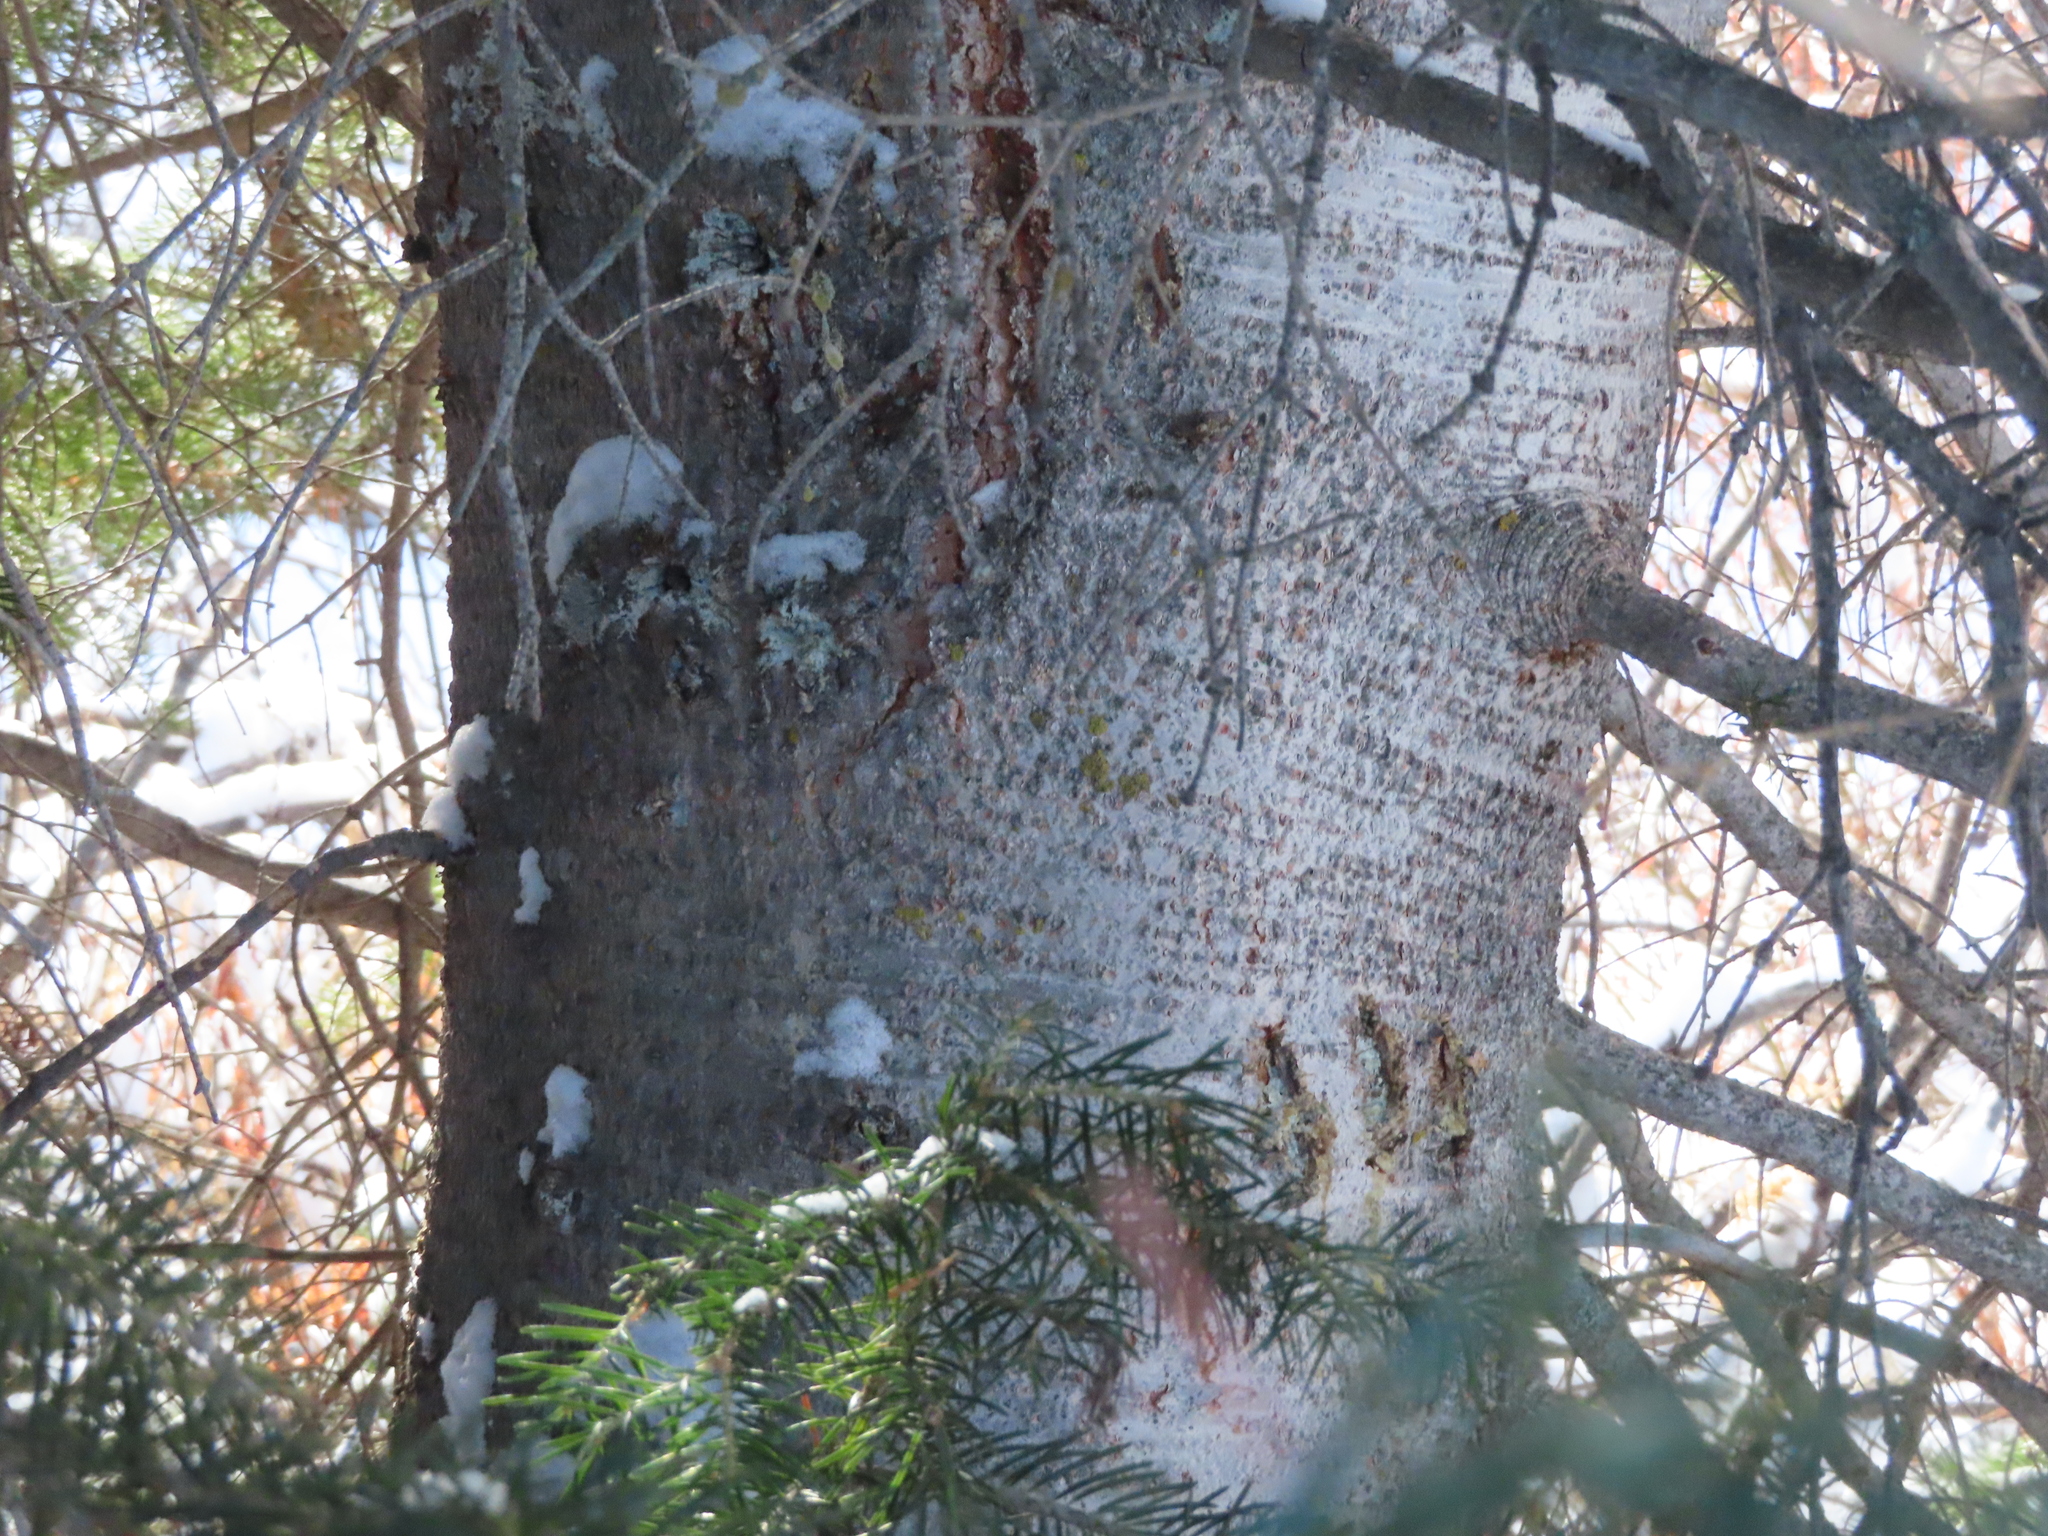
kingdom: Plantae
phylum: Tracheophyta
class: Pinopsida
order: Pinales
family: Pinaceae
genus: Abies
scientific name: Abies lasiocarpa
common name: Subalpine fir
